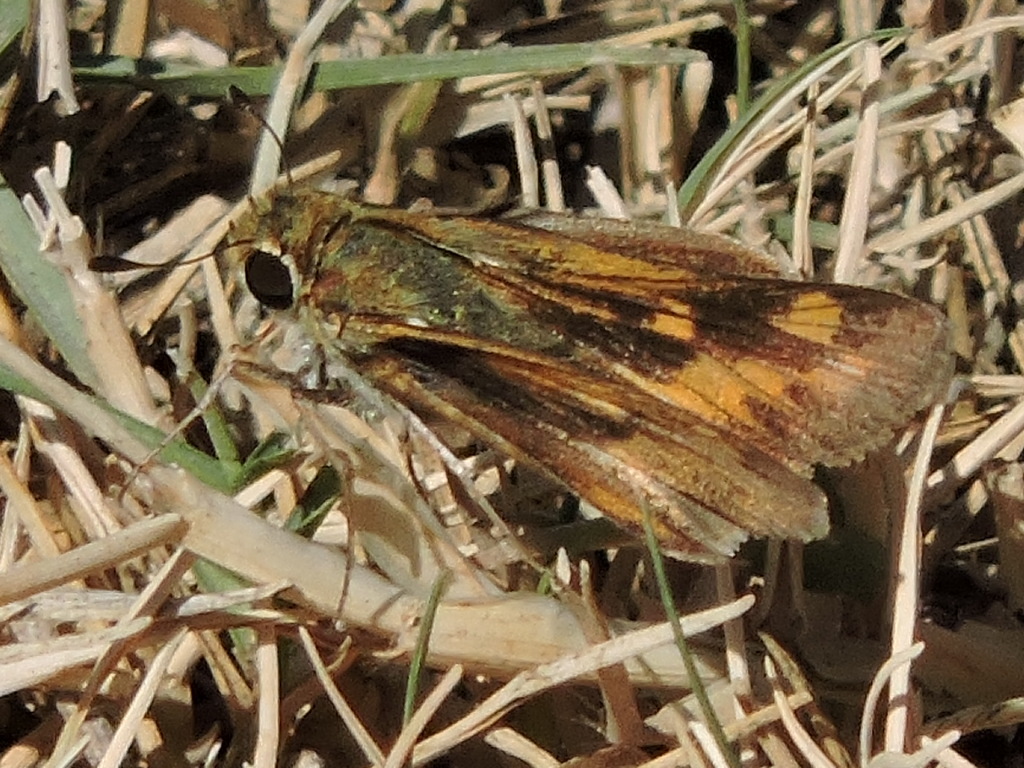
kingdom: Animalia
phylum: Arthropoda
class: Insecta
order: Lepidoptera
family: Hesperiidae
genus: Hylephila
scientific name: Hylephila phyleus
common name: Fiery skipper
